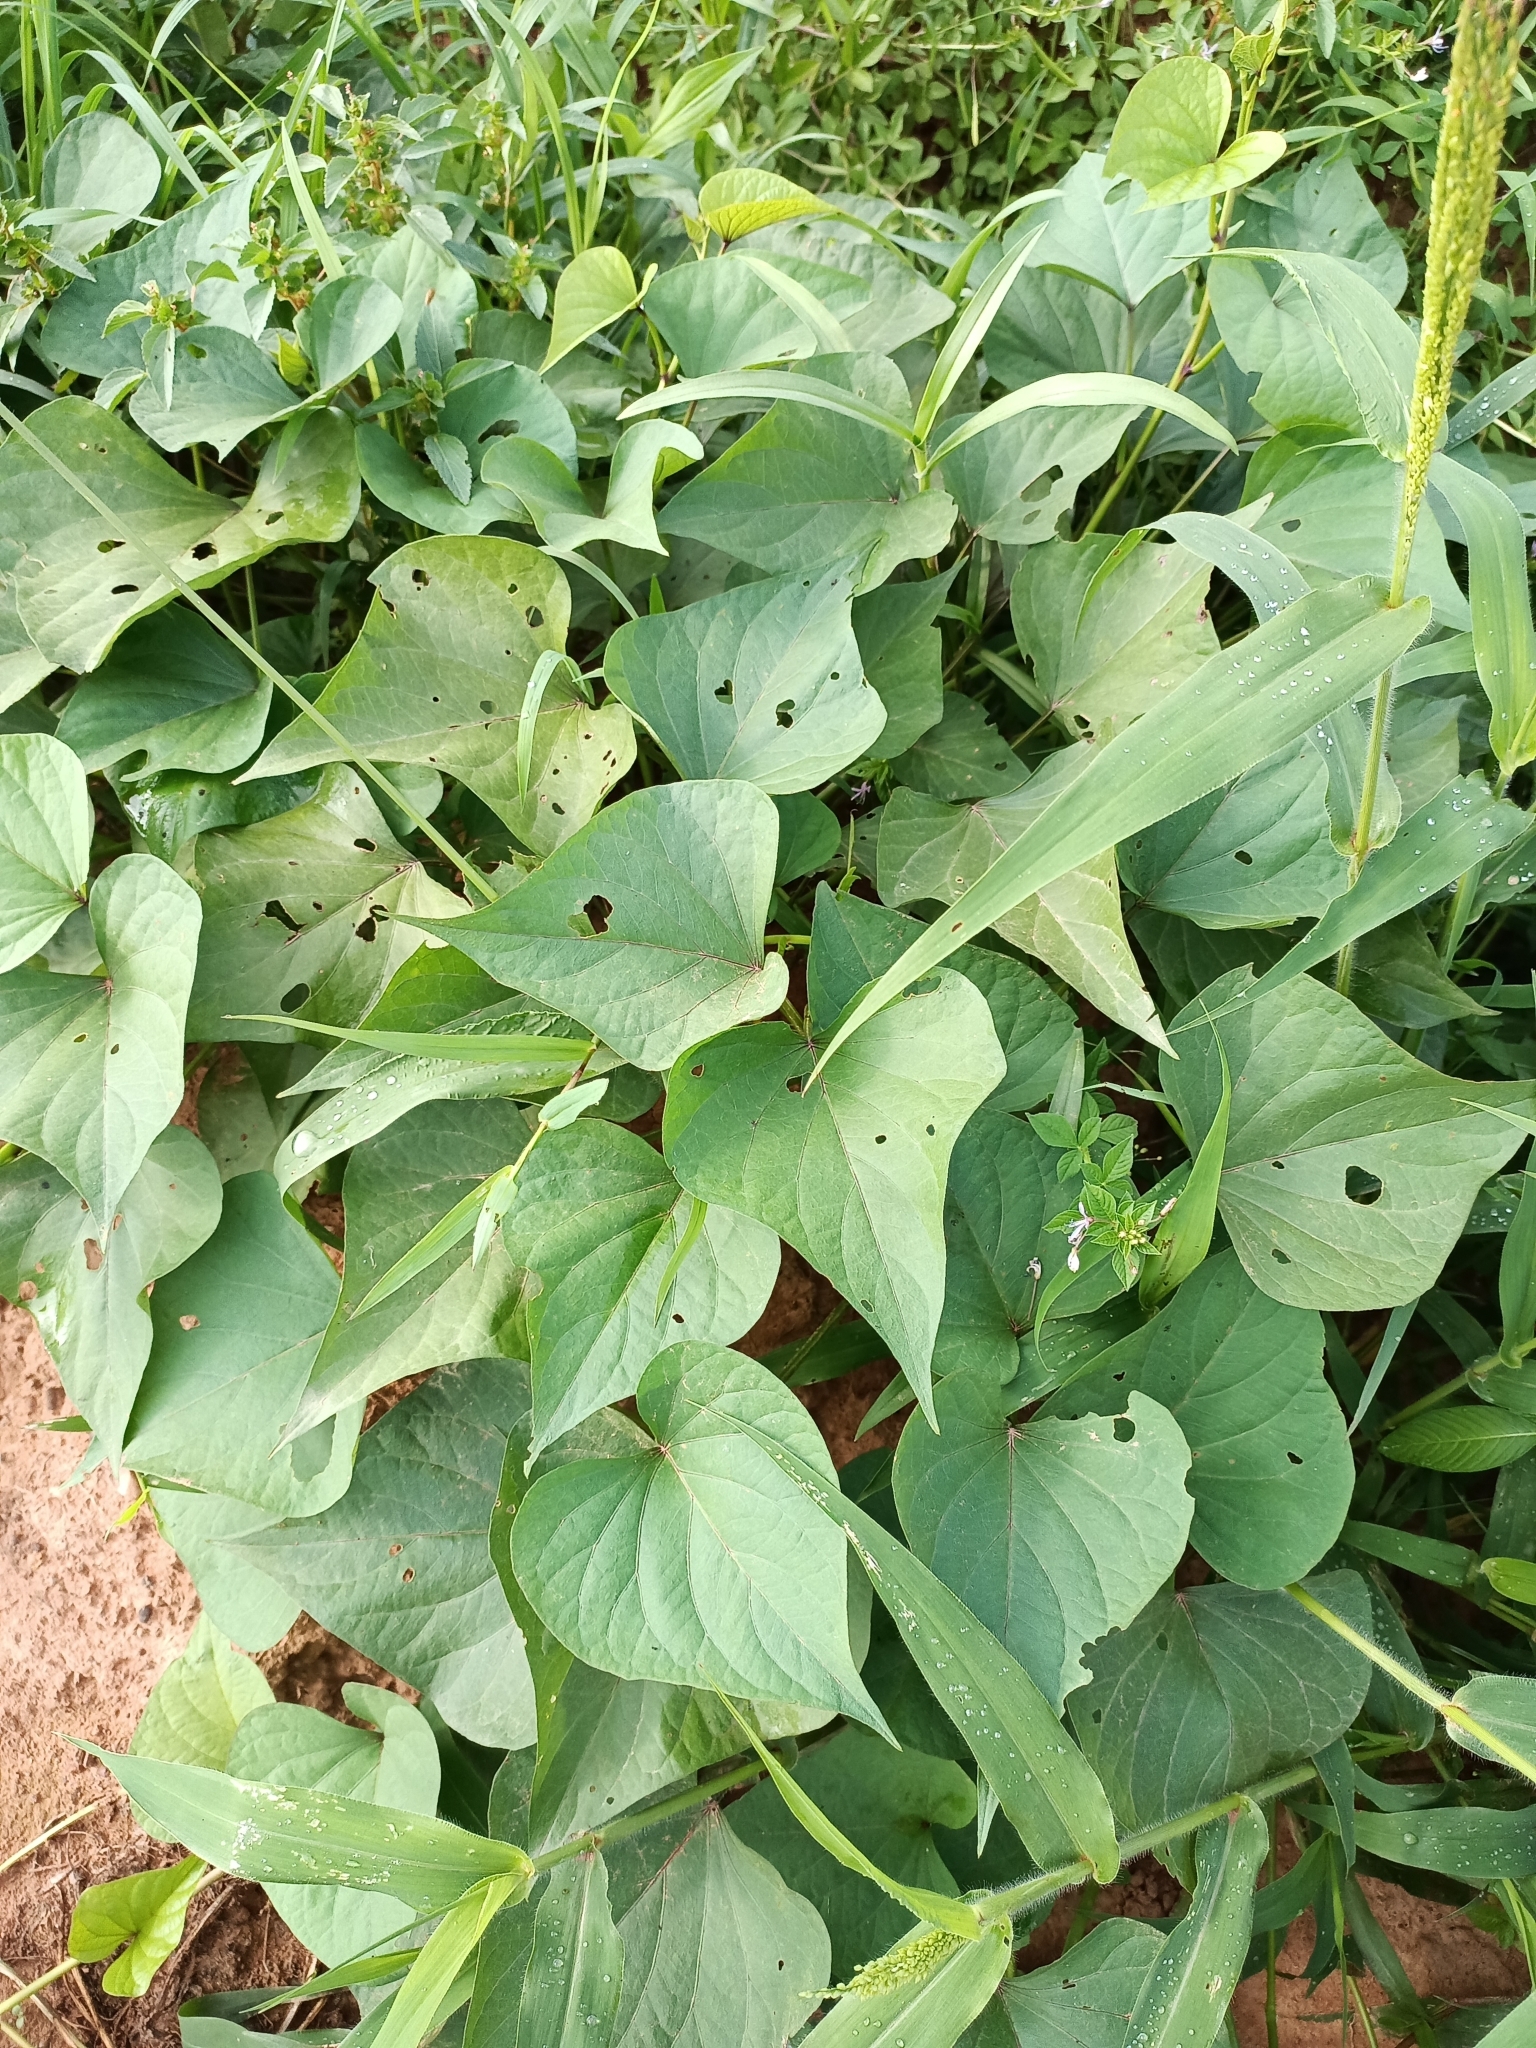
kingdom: Plantae
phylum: Tracheophyta
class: Magnoliopsida
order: Solanales
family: Convolvulaceae
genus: Ipomoea
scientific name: Ipomoea batatas
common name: Sweet-potato
